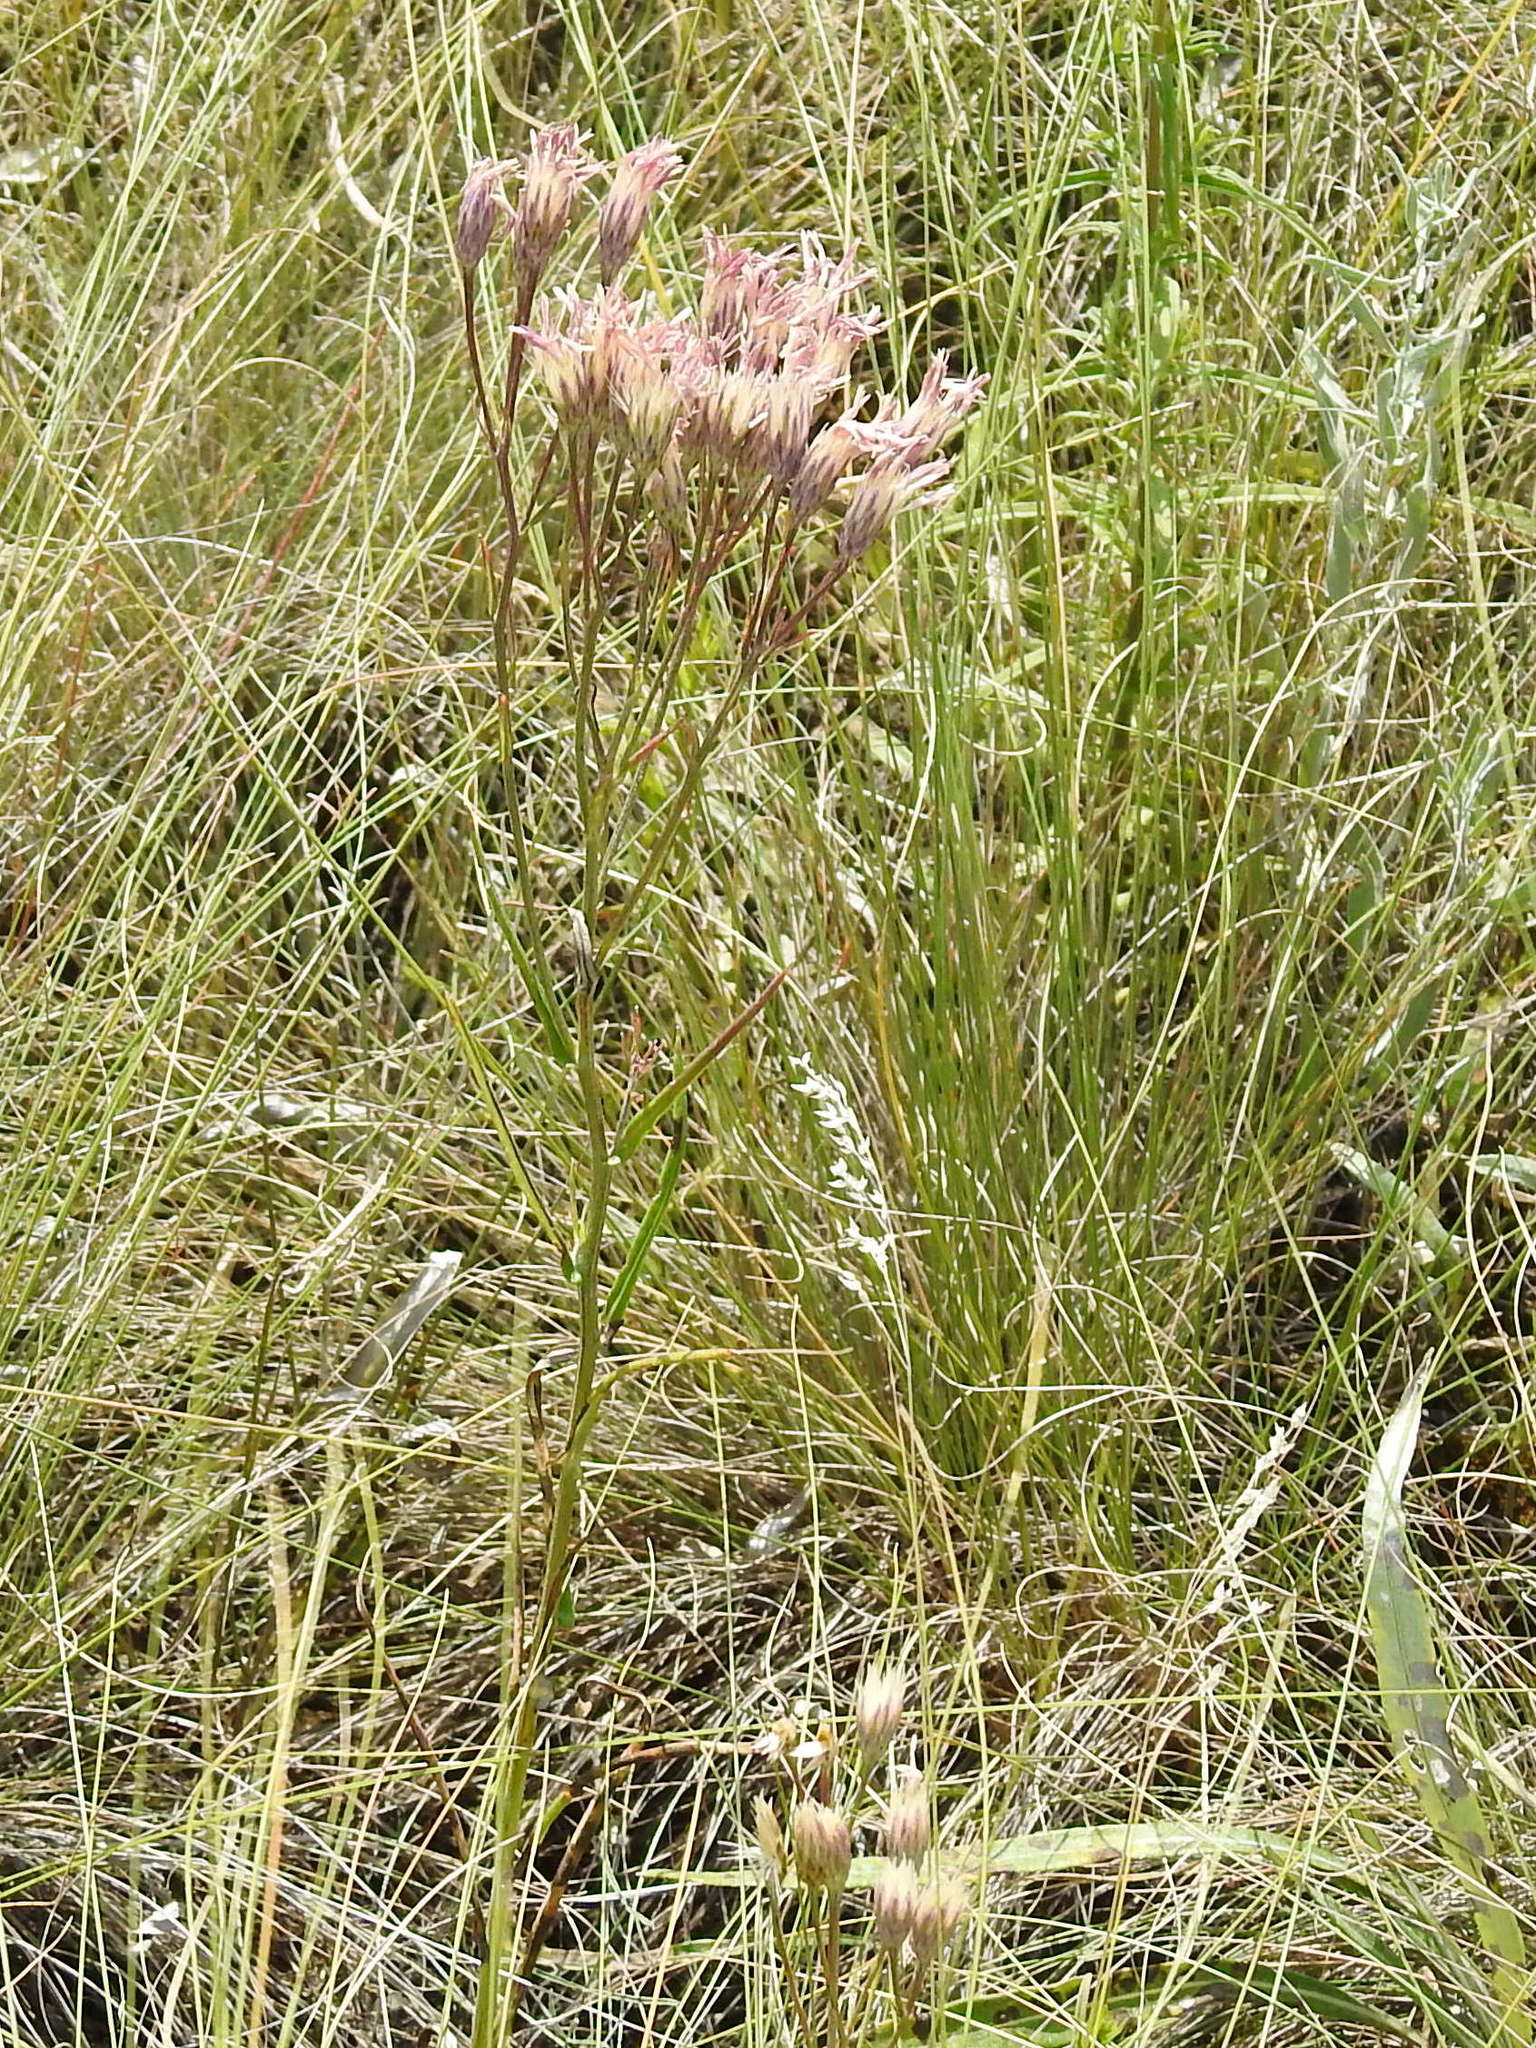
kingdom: Plantae
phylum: Tracheophyta
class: Magnoliopsida
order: Asterales
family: Asteraceae
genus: Jurinea
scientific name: Jurinea multiflora
